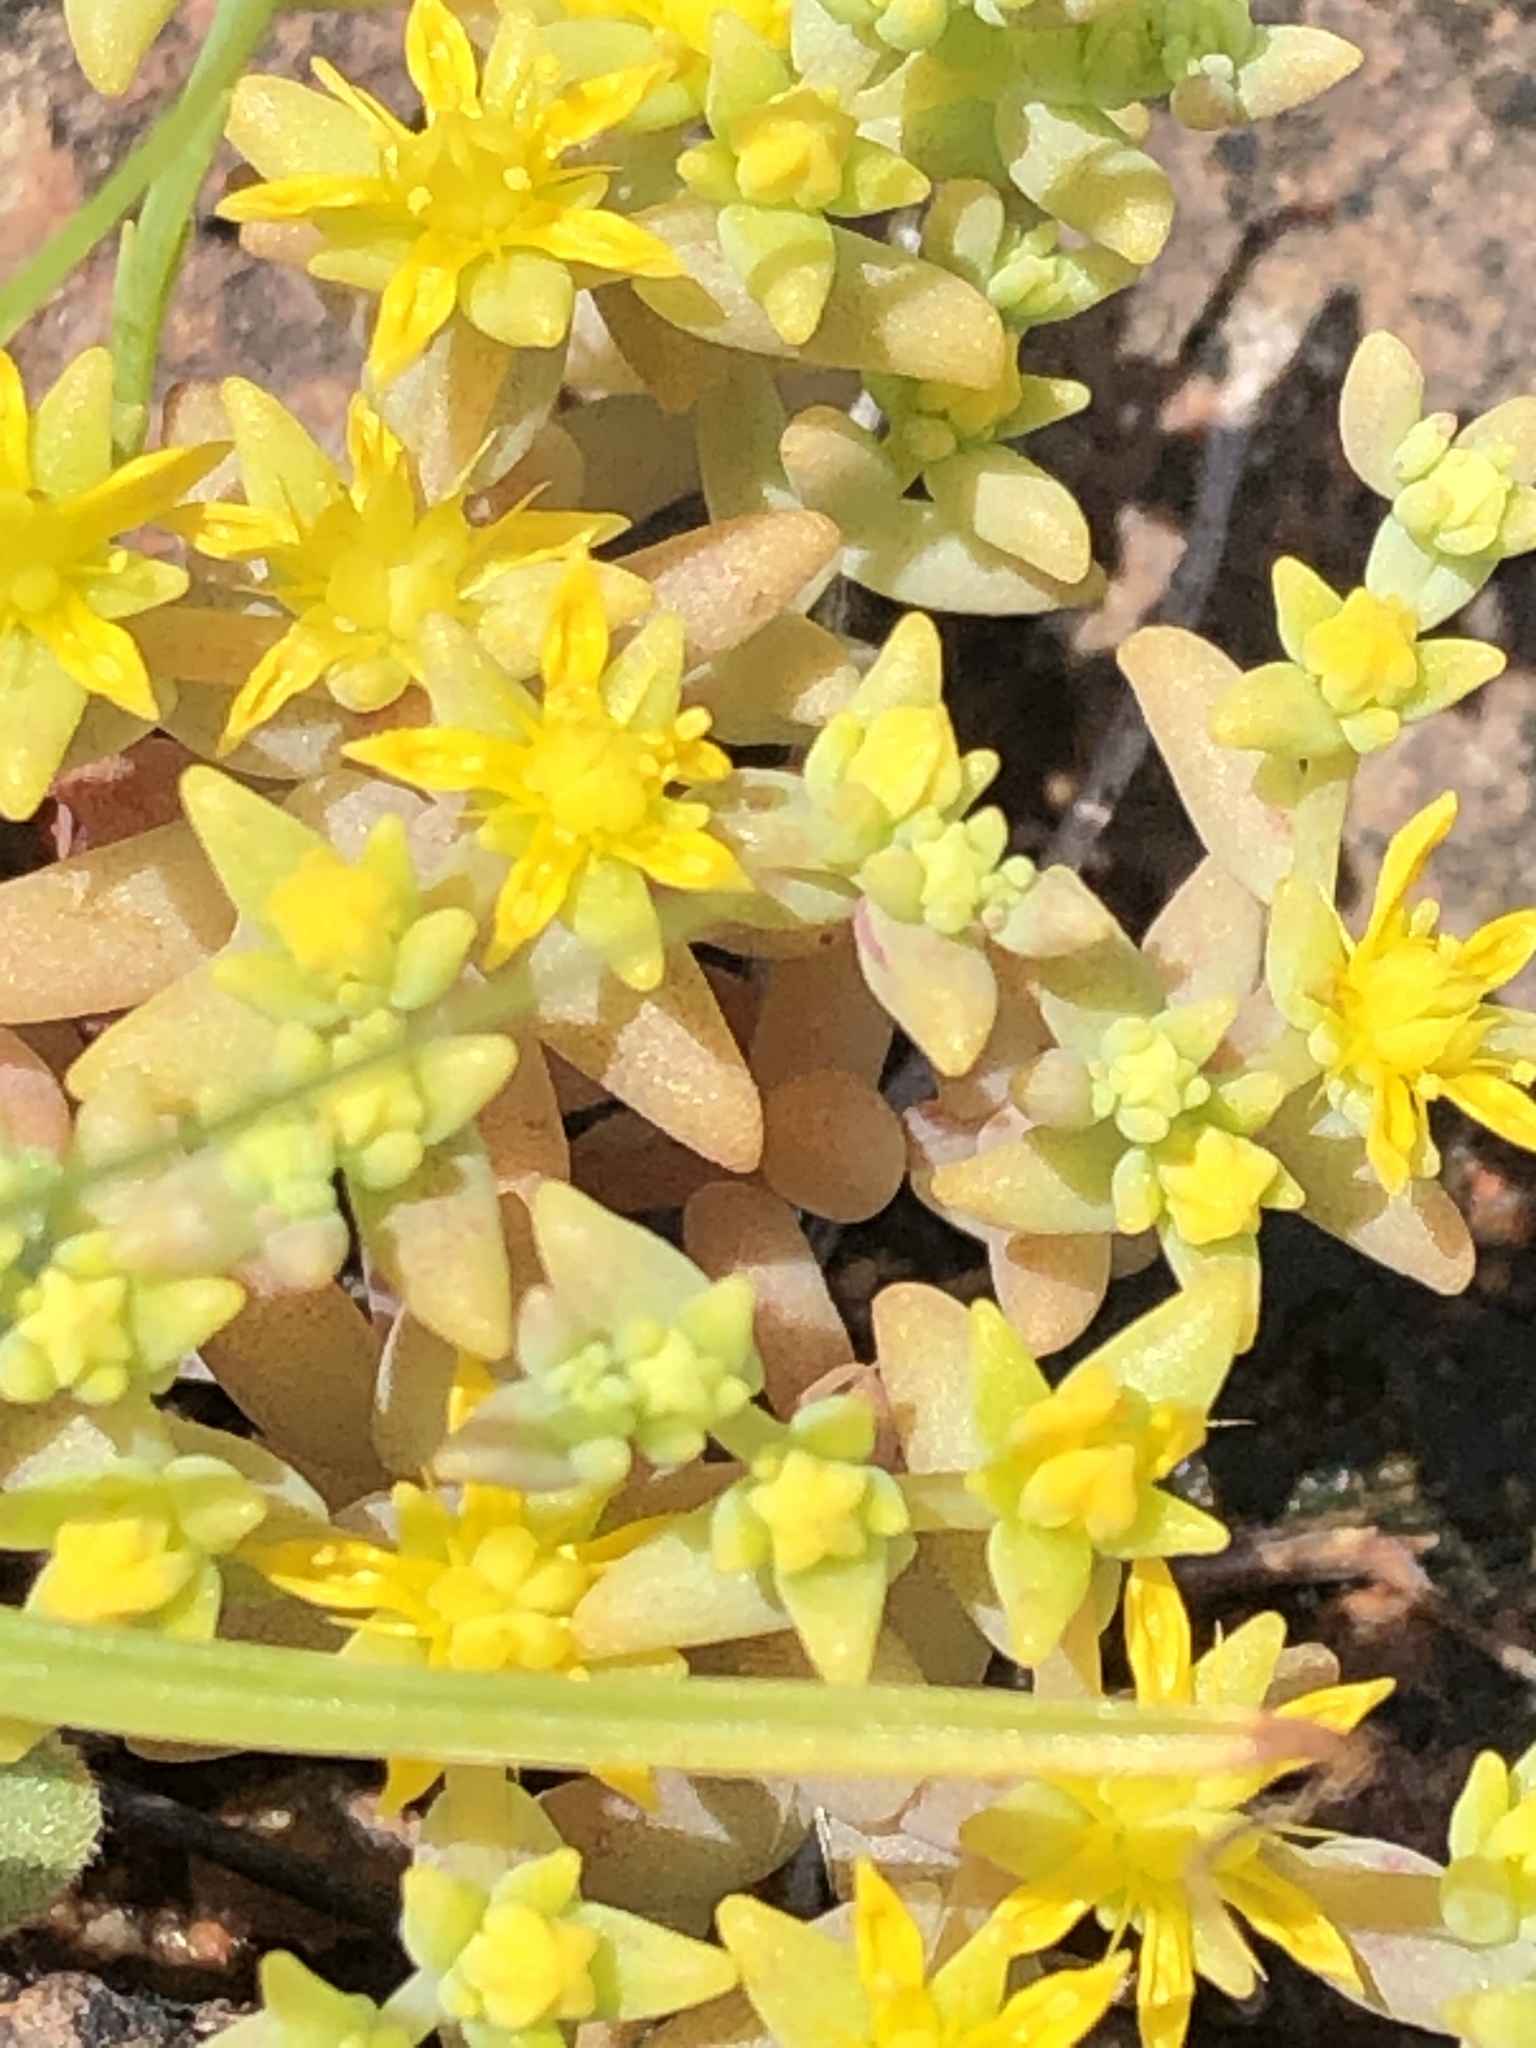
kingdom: Plantae
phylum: Tracheophyta
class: Magnoliopsida
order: Saxifragales
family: Crassulaceae
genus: Sedum
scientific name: Sedum nuttallii
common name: Yellow stonecrop
